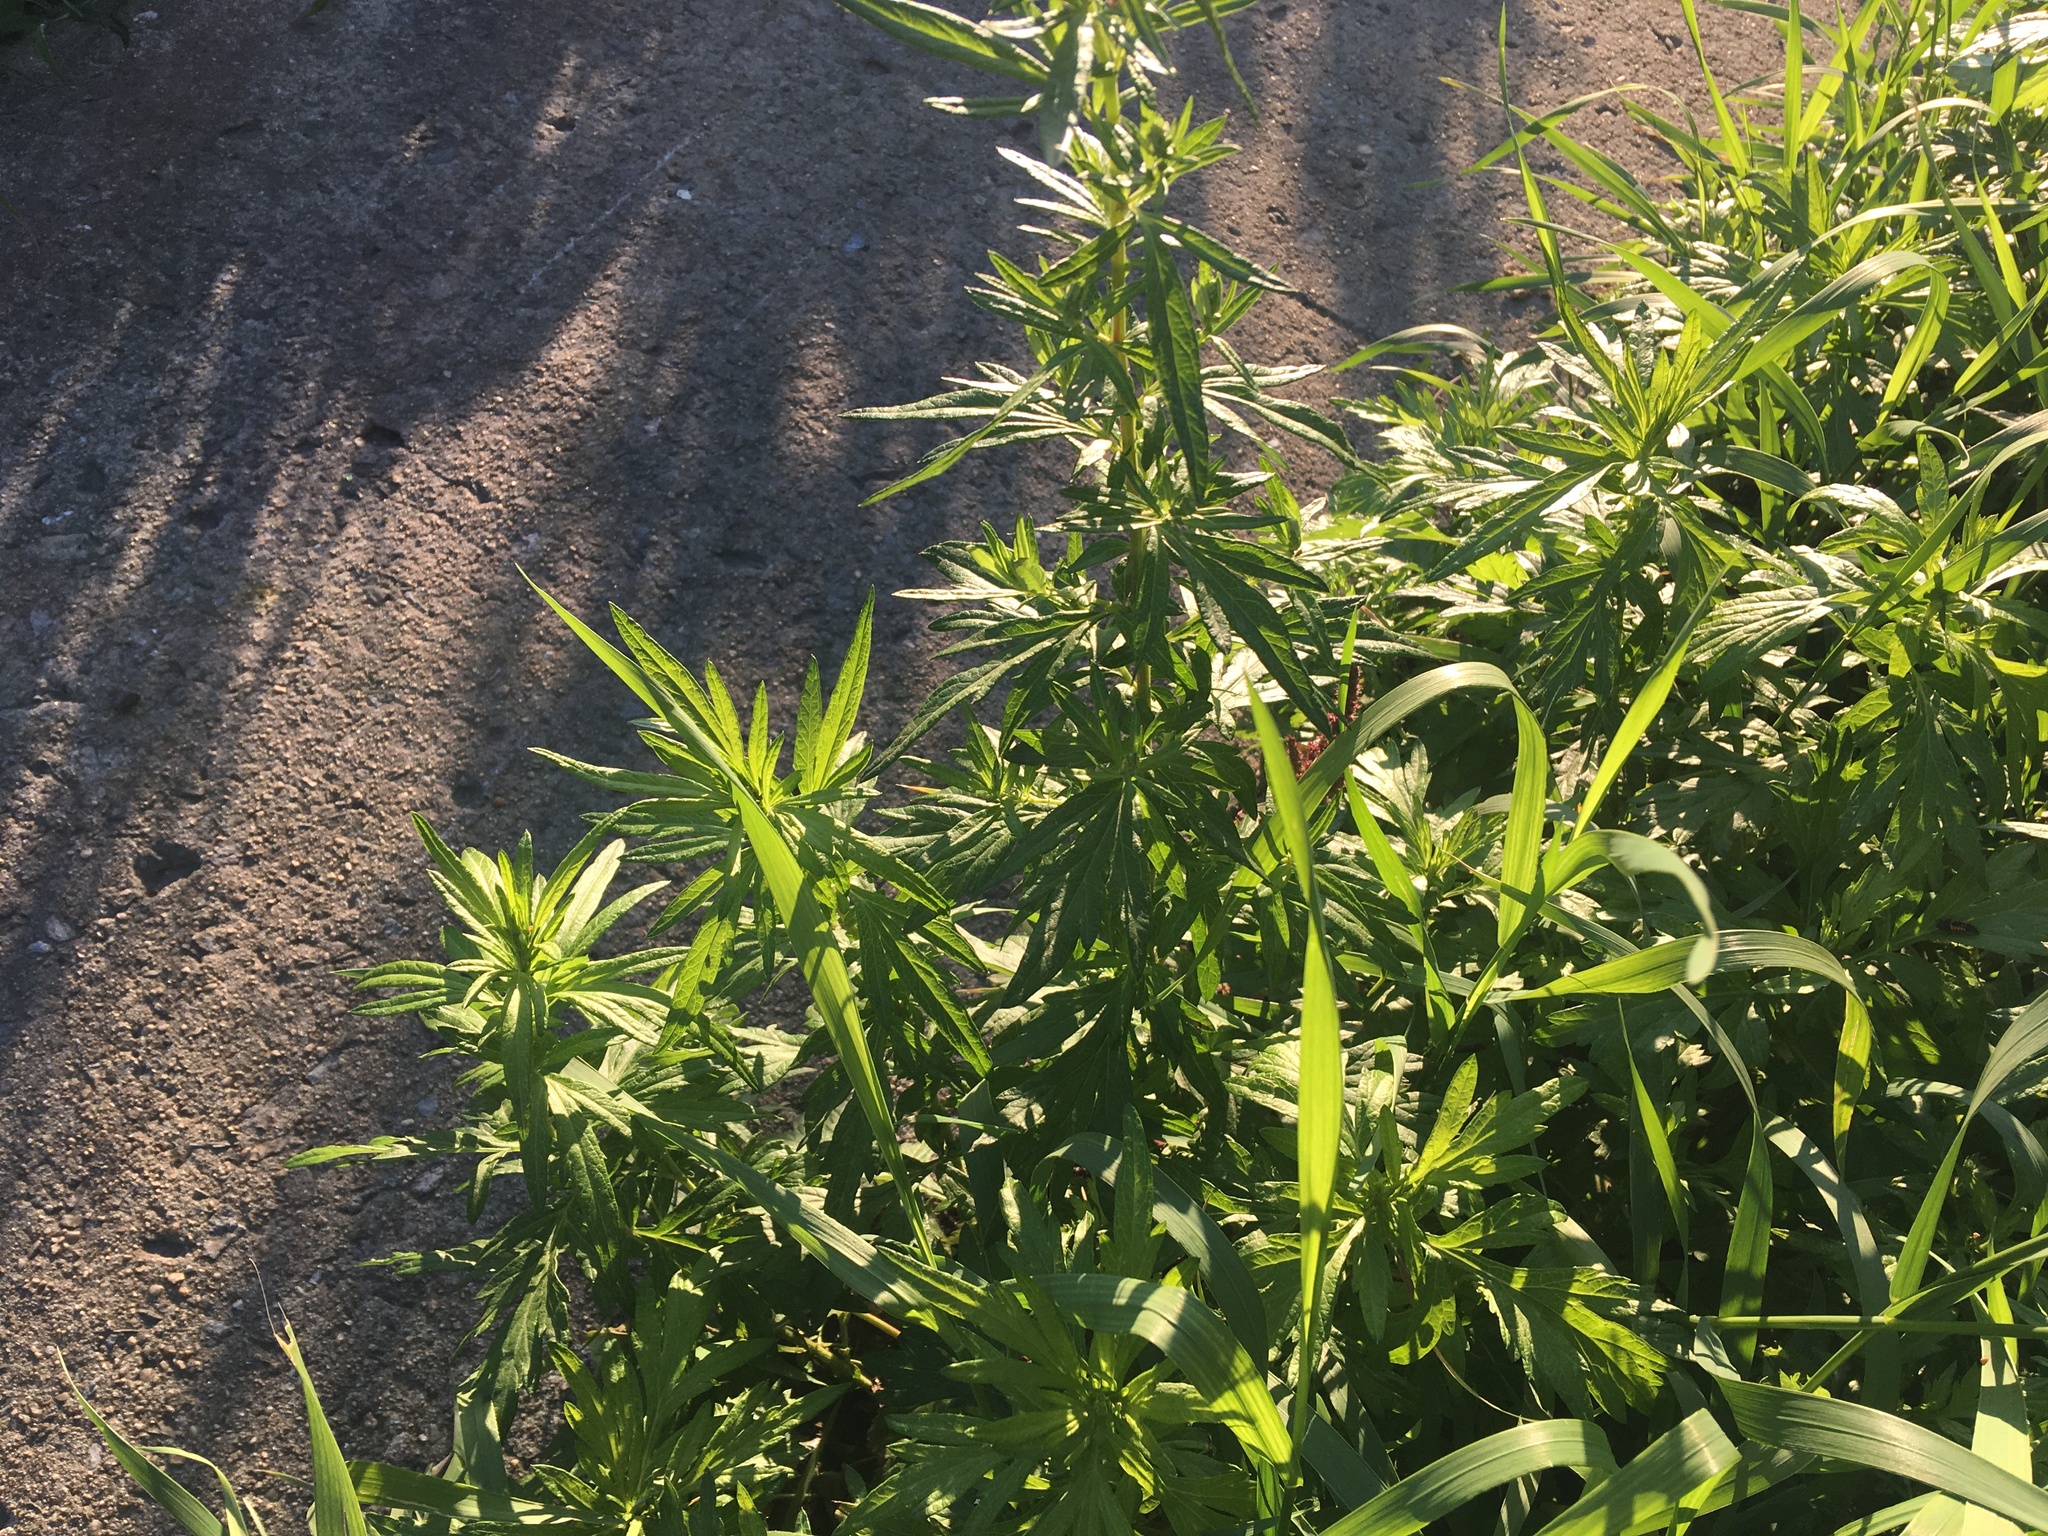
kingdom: Plantae
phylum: Tracheophyta
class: Magnoliopsida
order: Asterales
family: Asteraceae
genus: Artemisia
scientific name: Artemisia vulgaris
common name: Mugwort
